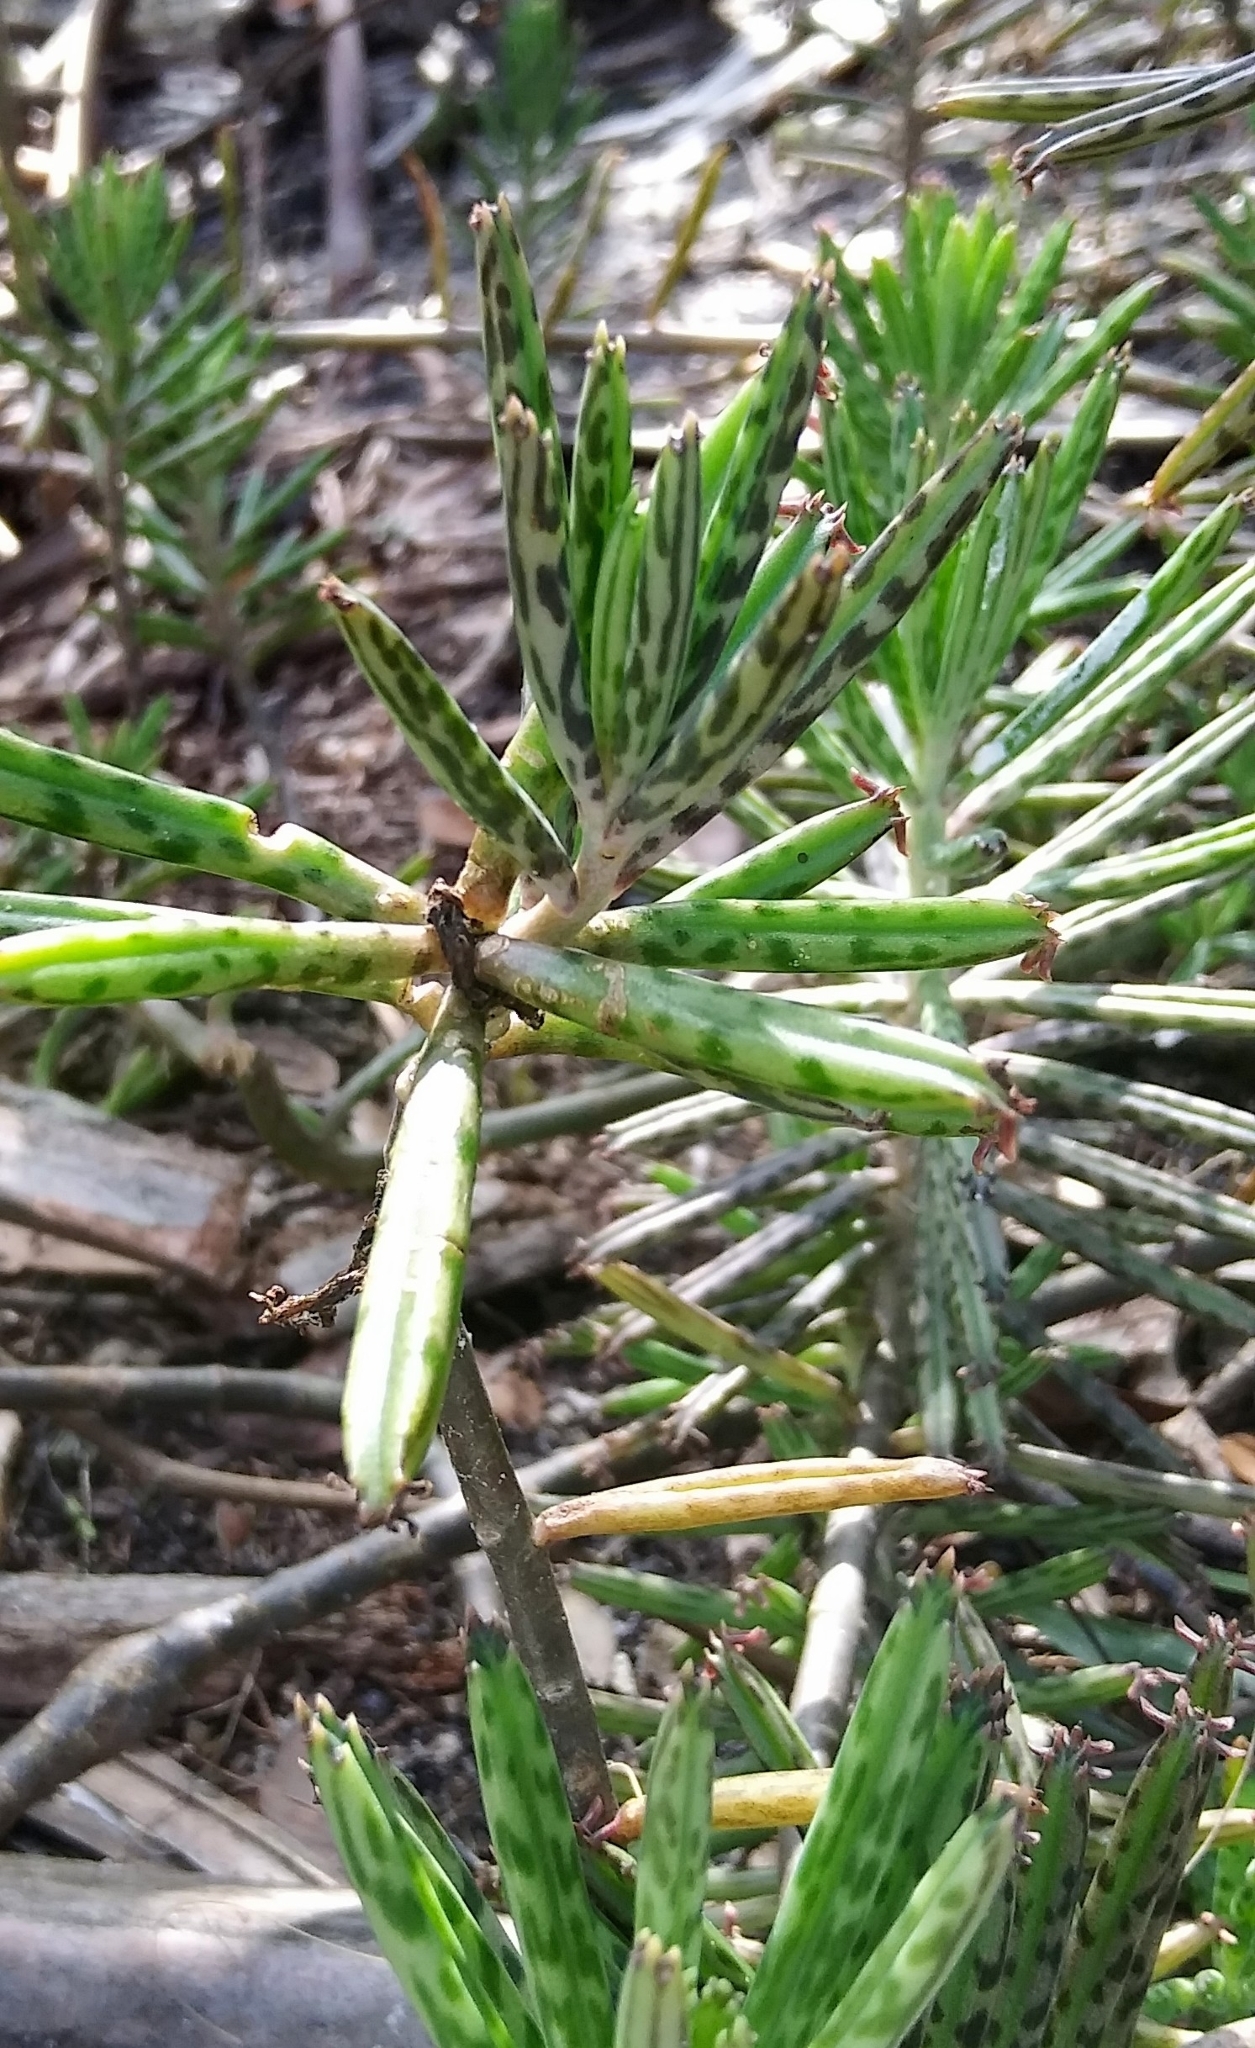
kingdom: Plantae
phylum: Tracheophyta
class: Magnoliopsida
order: Saxifragales
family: Crassulaceae
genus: Kalanchoe
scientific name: Kalanchoe delagoensis
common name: Chandelier plant
